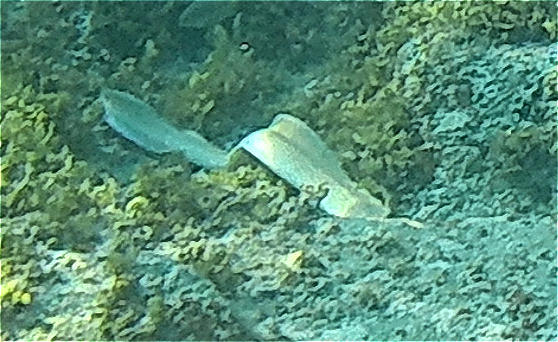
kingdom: Animalia
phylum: Chordata
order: Anguilliformes
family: Muraenidae
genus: Gymnothorax
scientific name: Gymnothorax griseus
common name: Geometric moray
